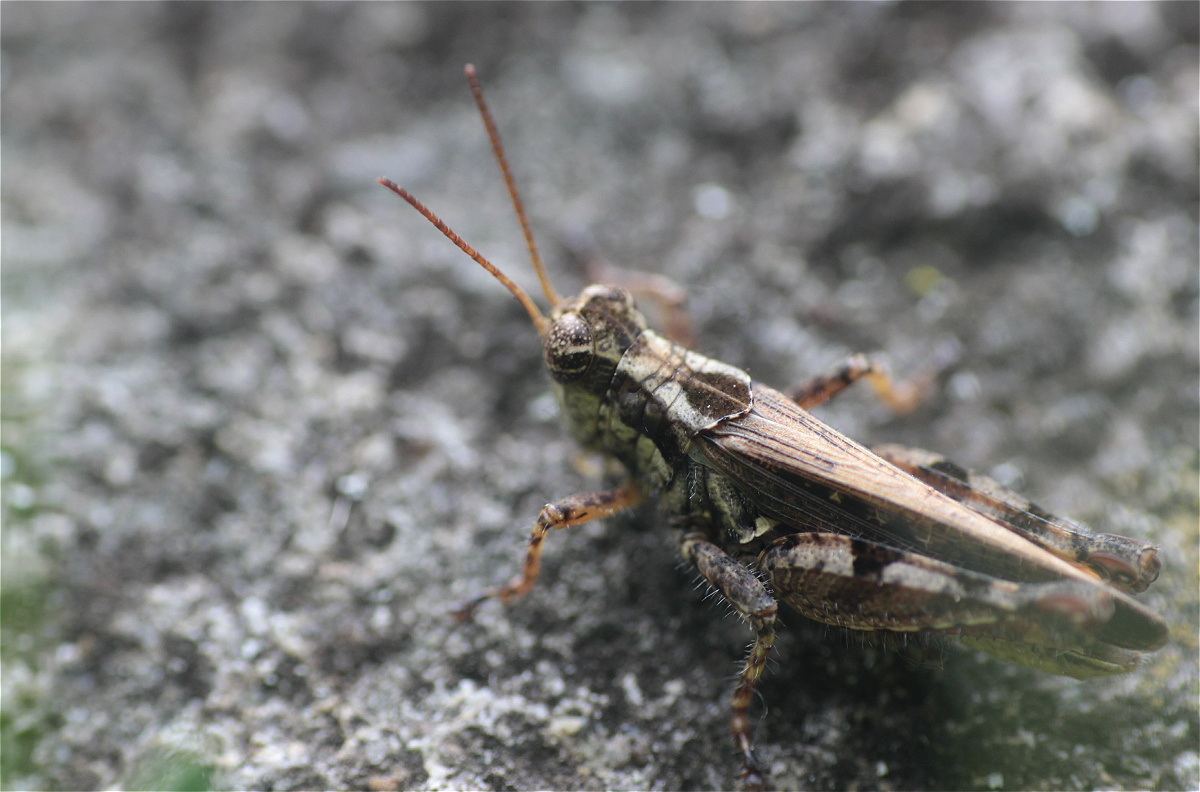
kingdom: Animalia
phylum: Arthropoda
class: Insecta
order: Orthoptera
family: Acrididae
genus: Baeacris
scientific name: Baeacris punctulata
